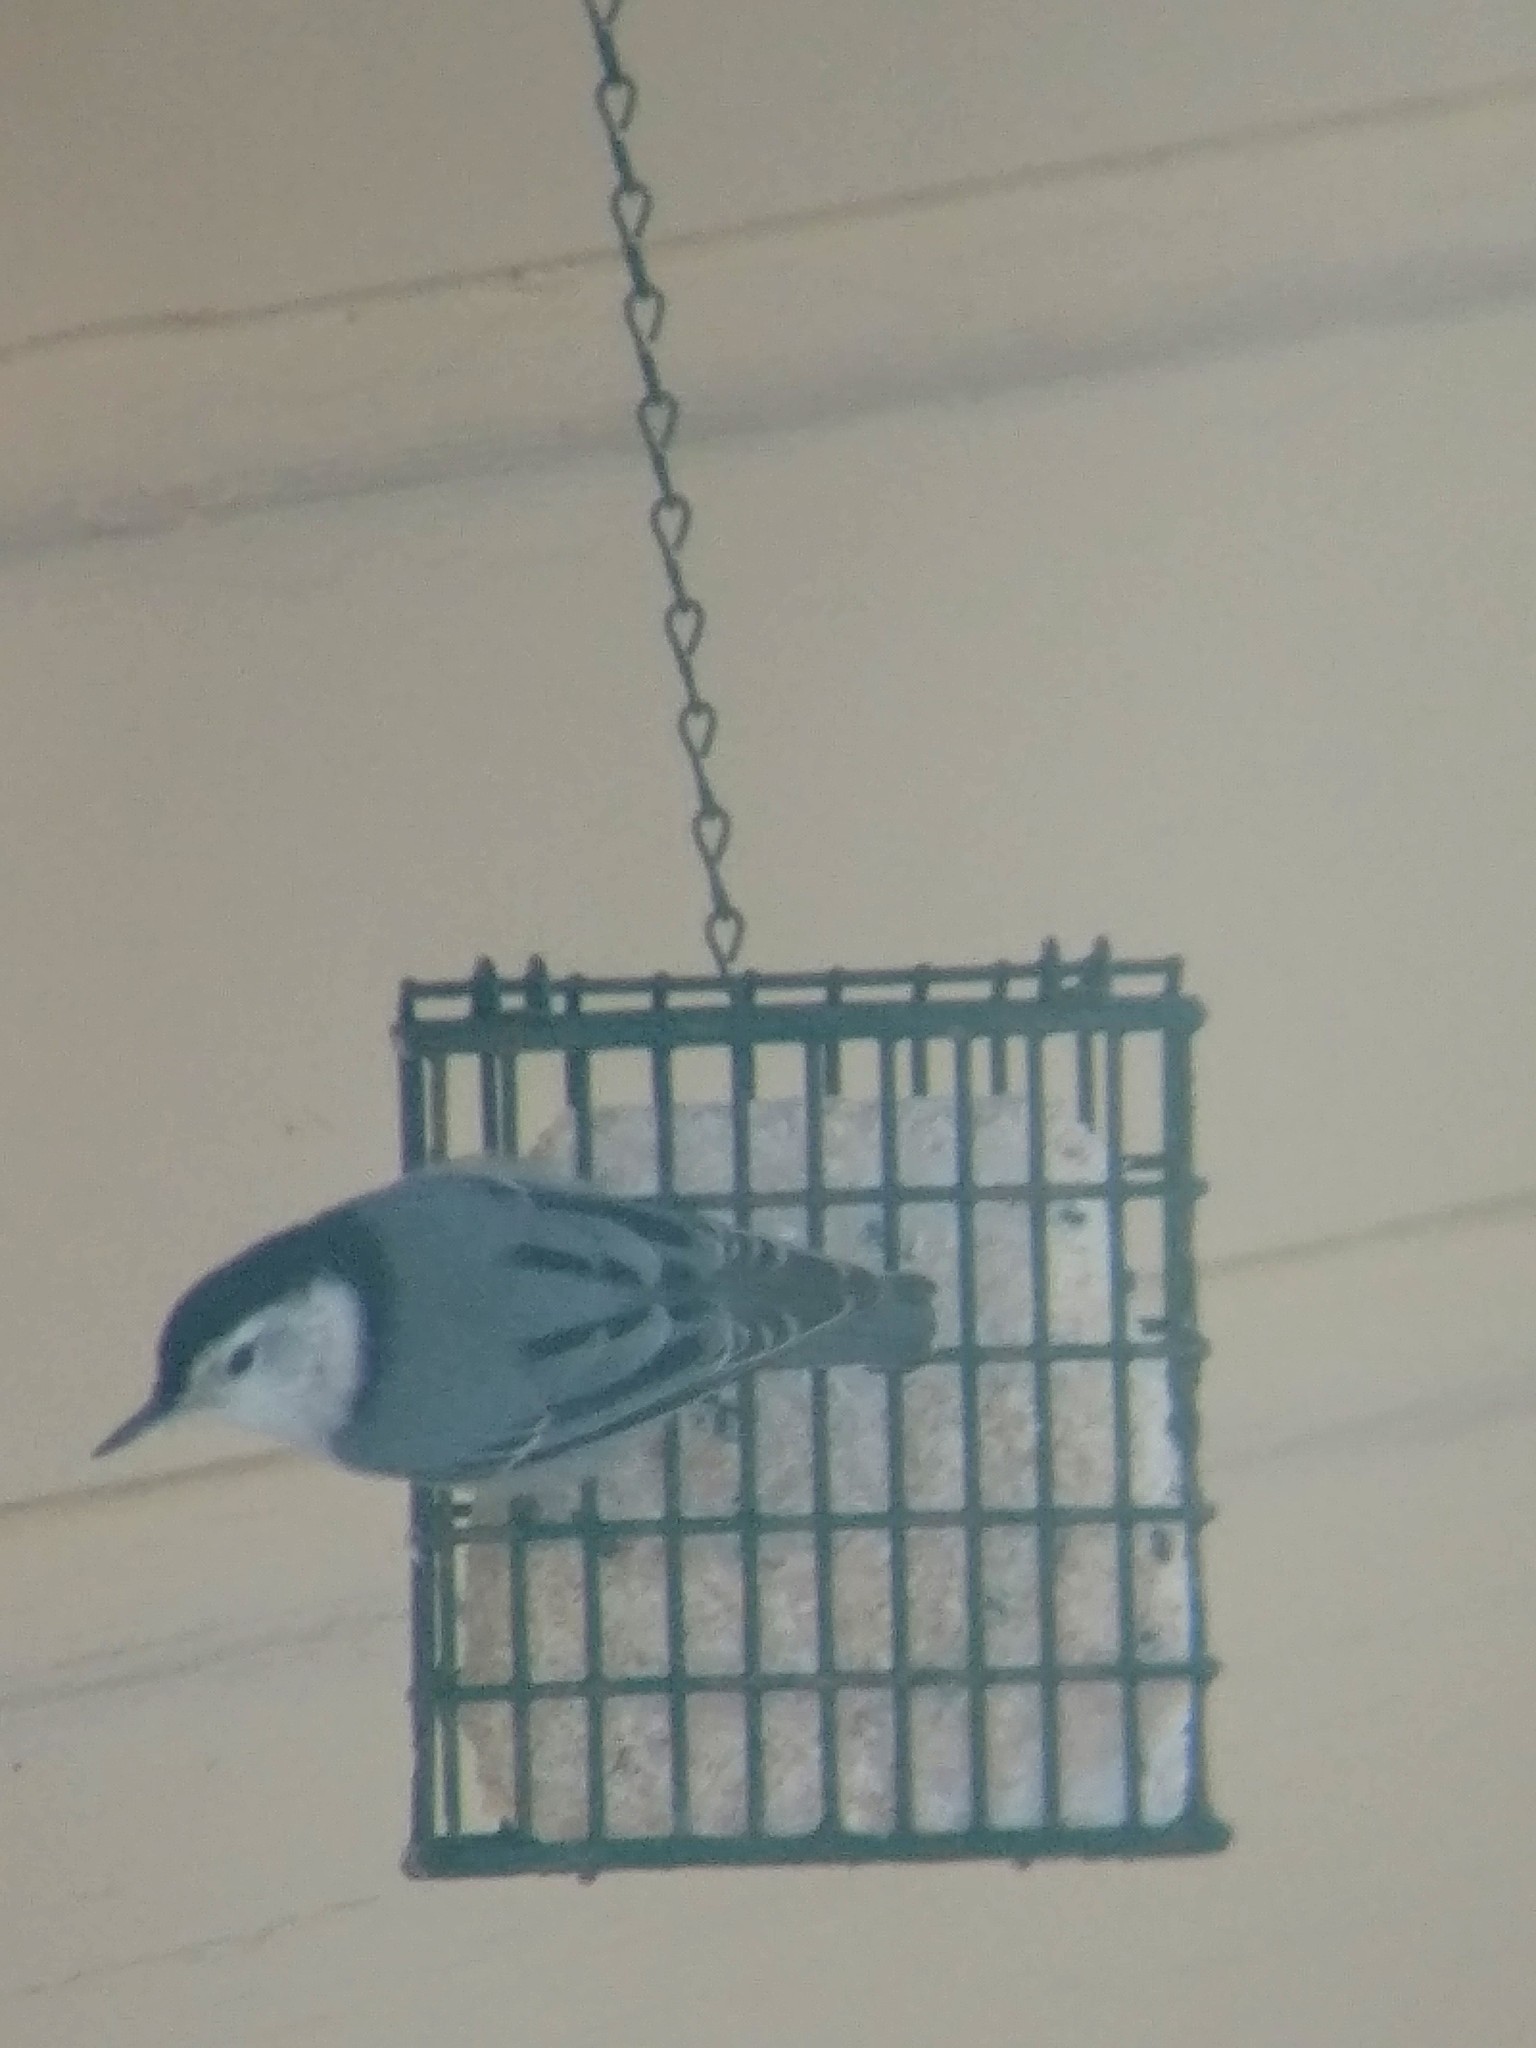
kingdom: Animalia
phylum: Chordata
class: Aves
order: Passeriformes
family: Sittidae
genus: Sitta
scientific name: Sitta carolinensis
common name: White-breasted nuthatch
